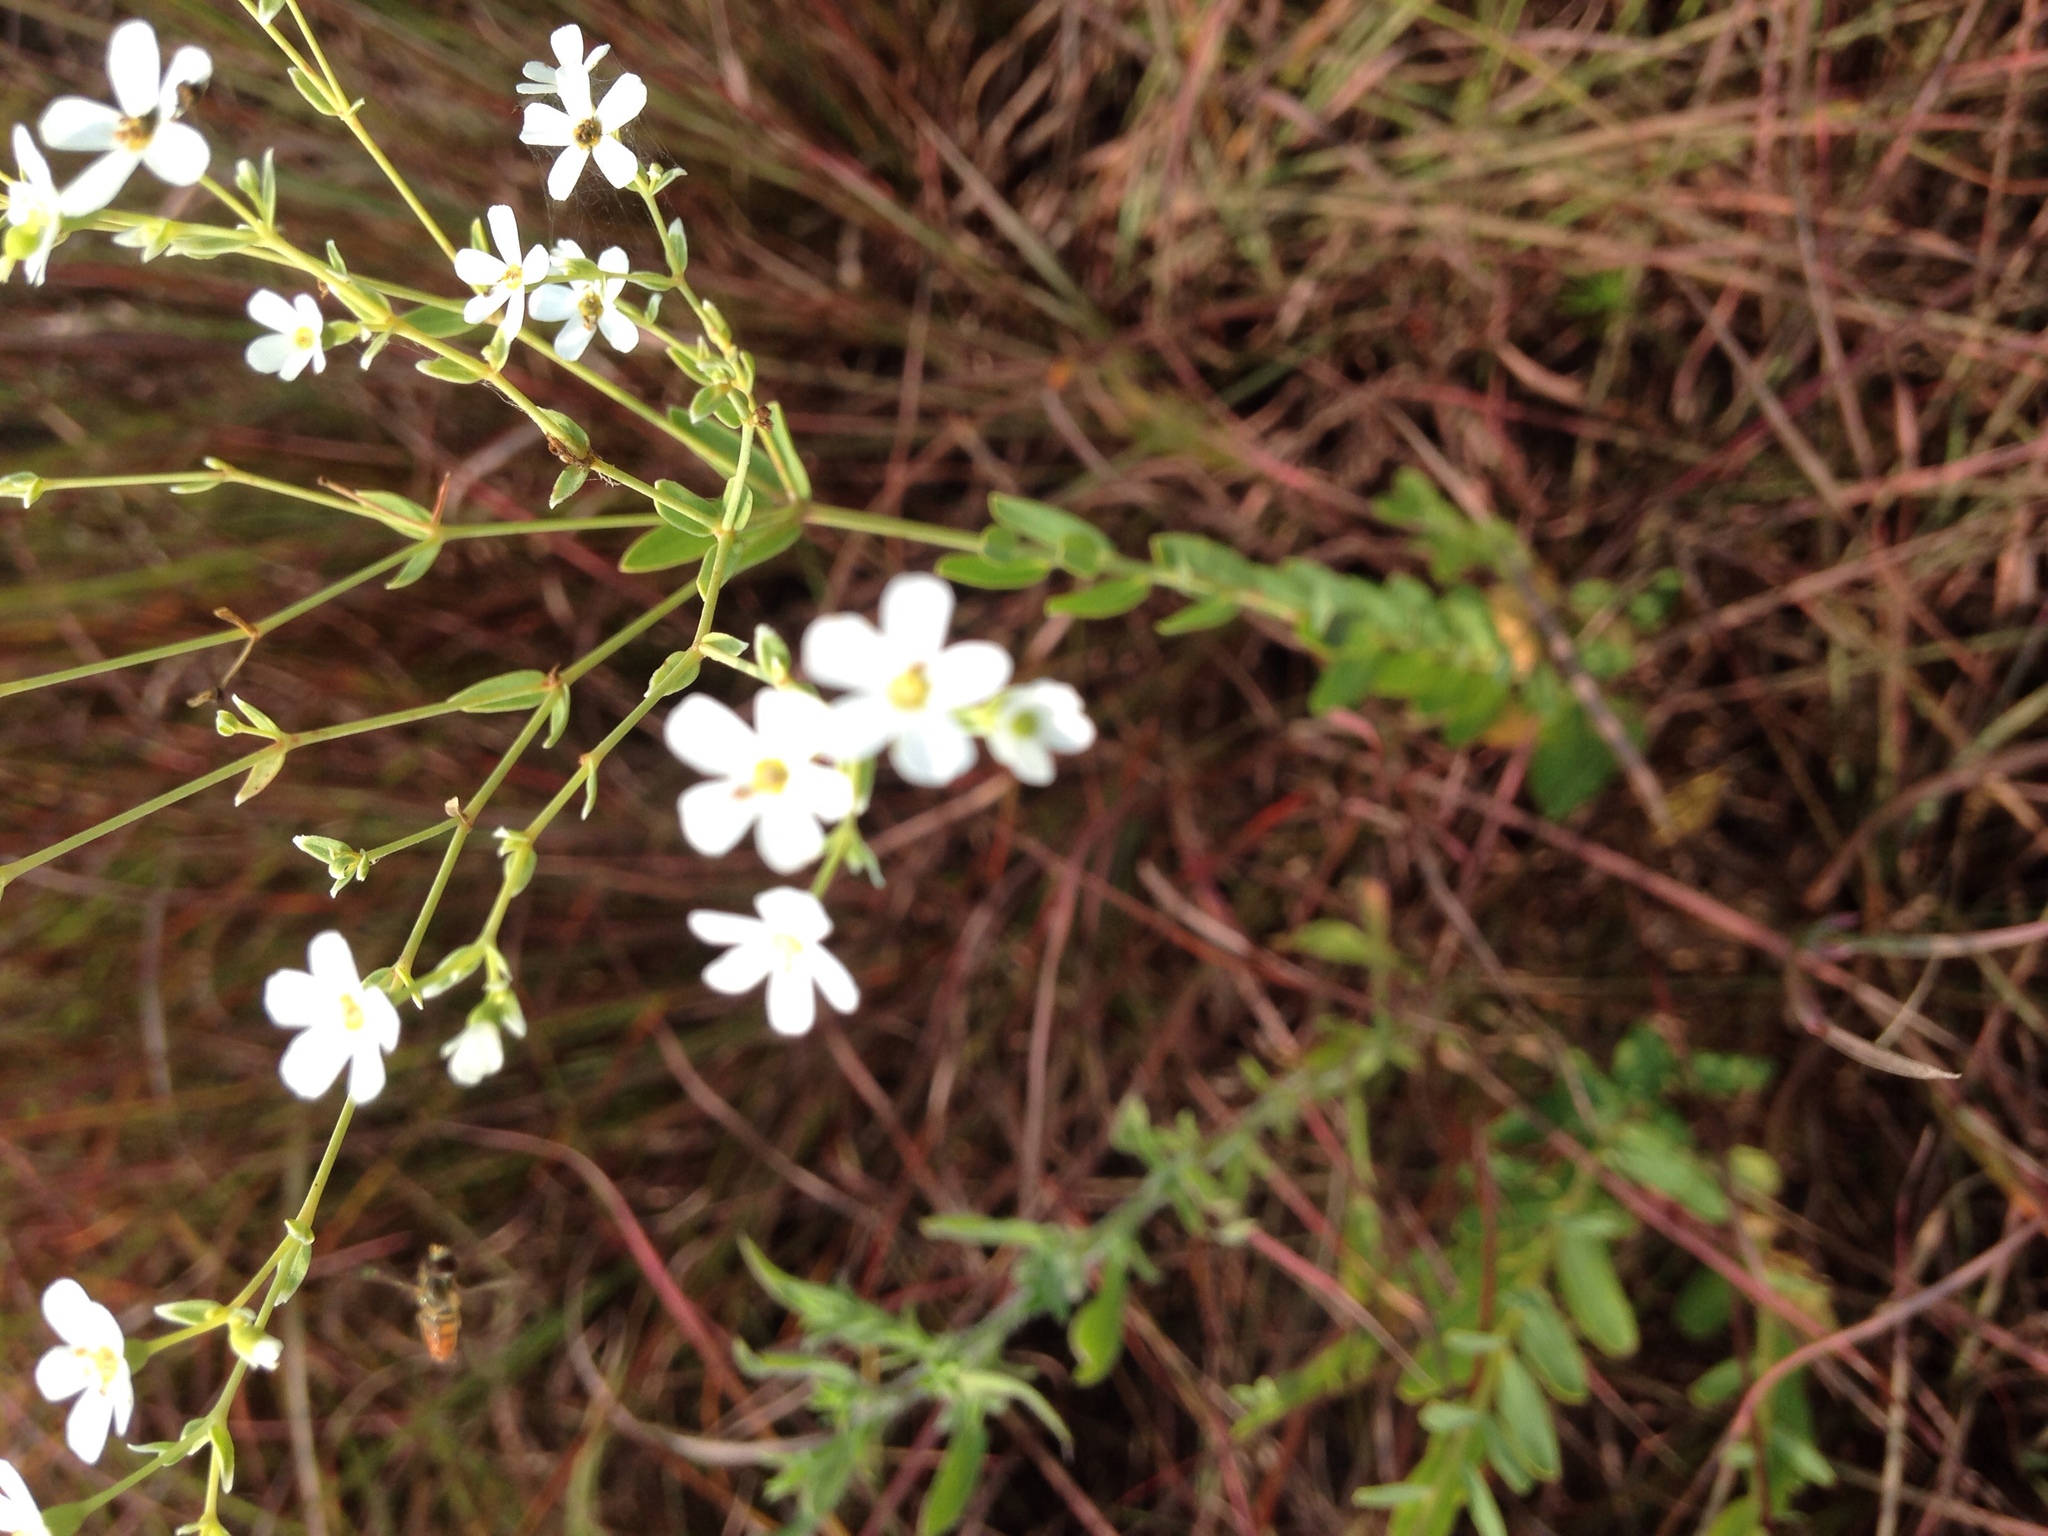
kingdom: Plantae
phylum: Tracheophyta
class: Magnoliopsida
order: Malpighiales
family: Euphorbiaceae
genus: Euphorbia
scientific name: Euphorbia corollata
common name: Flowering spurge
